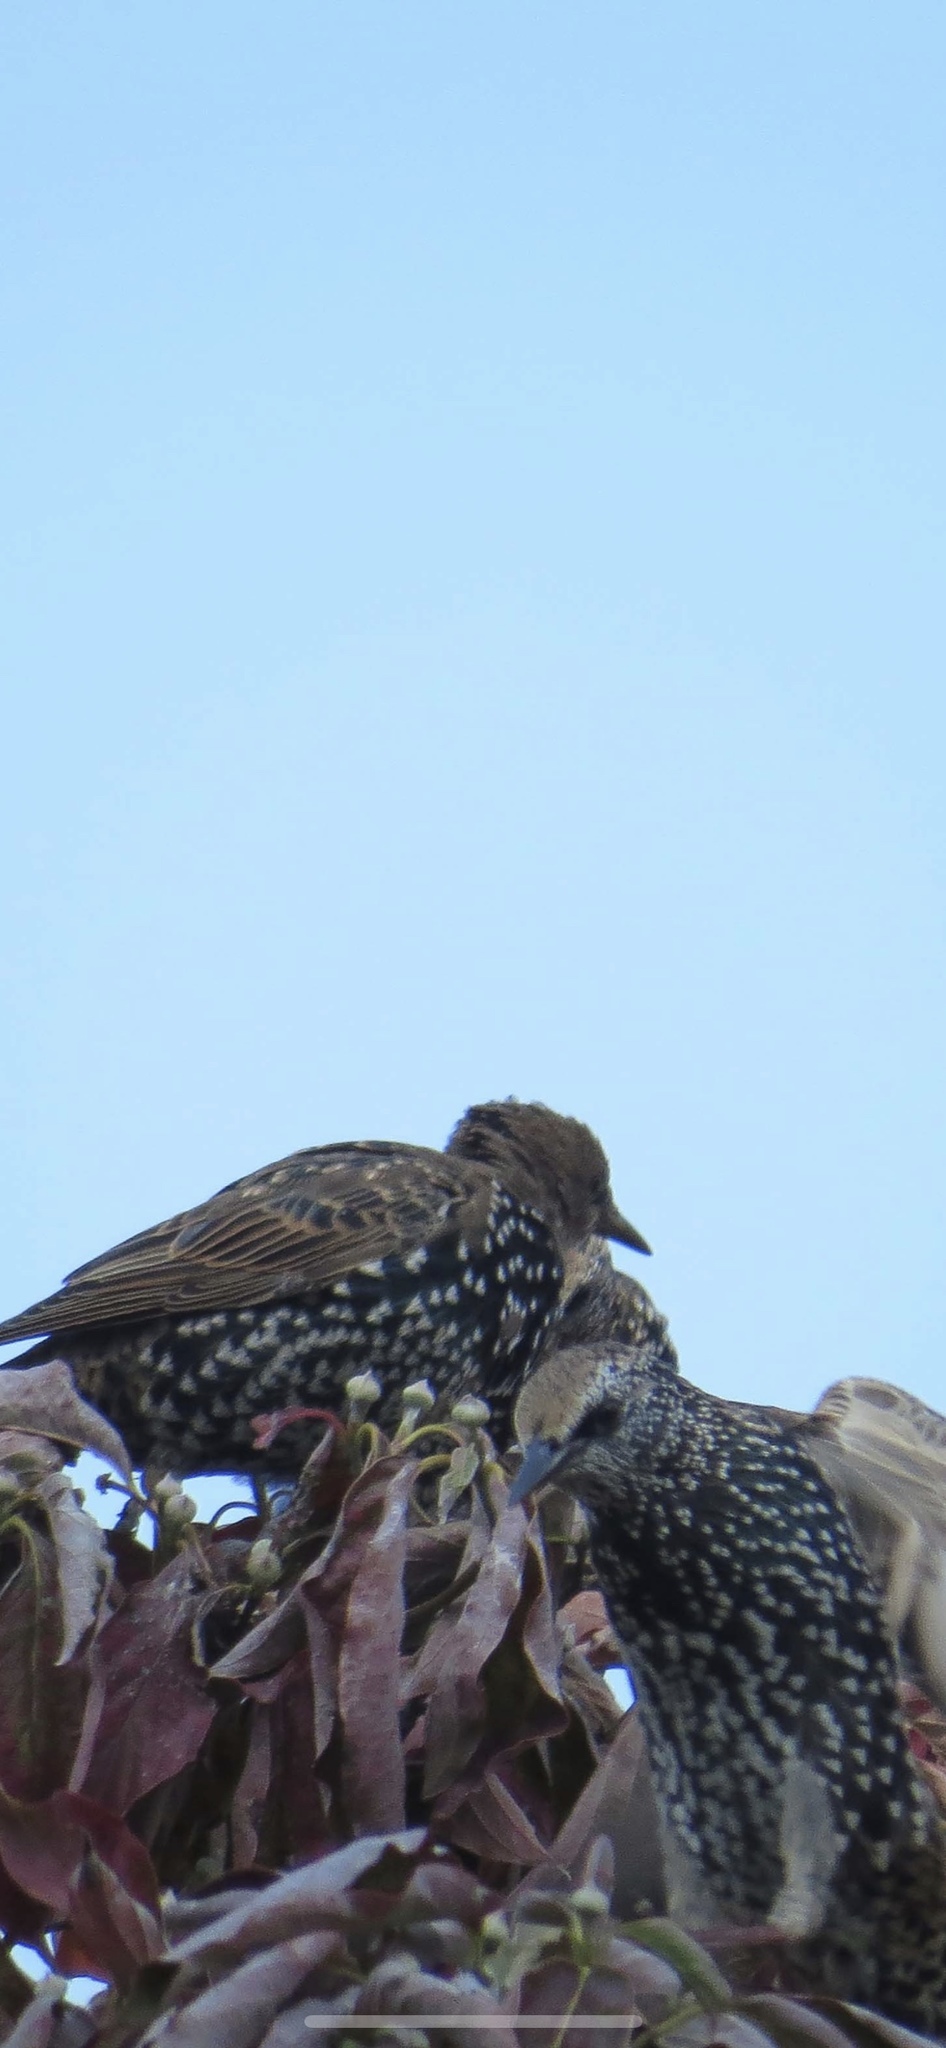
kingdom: Animalia
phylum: Chordata
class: Aves
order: Passeriformes
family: Sturnidae
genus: Sturnus
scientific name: Sturnus vulgaris
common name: Common starling
